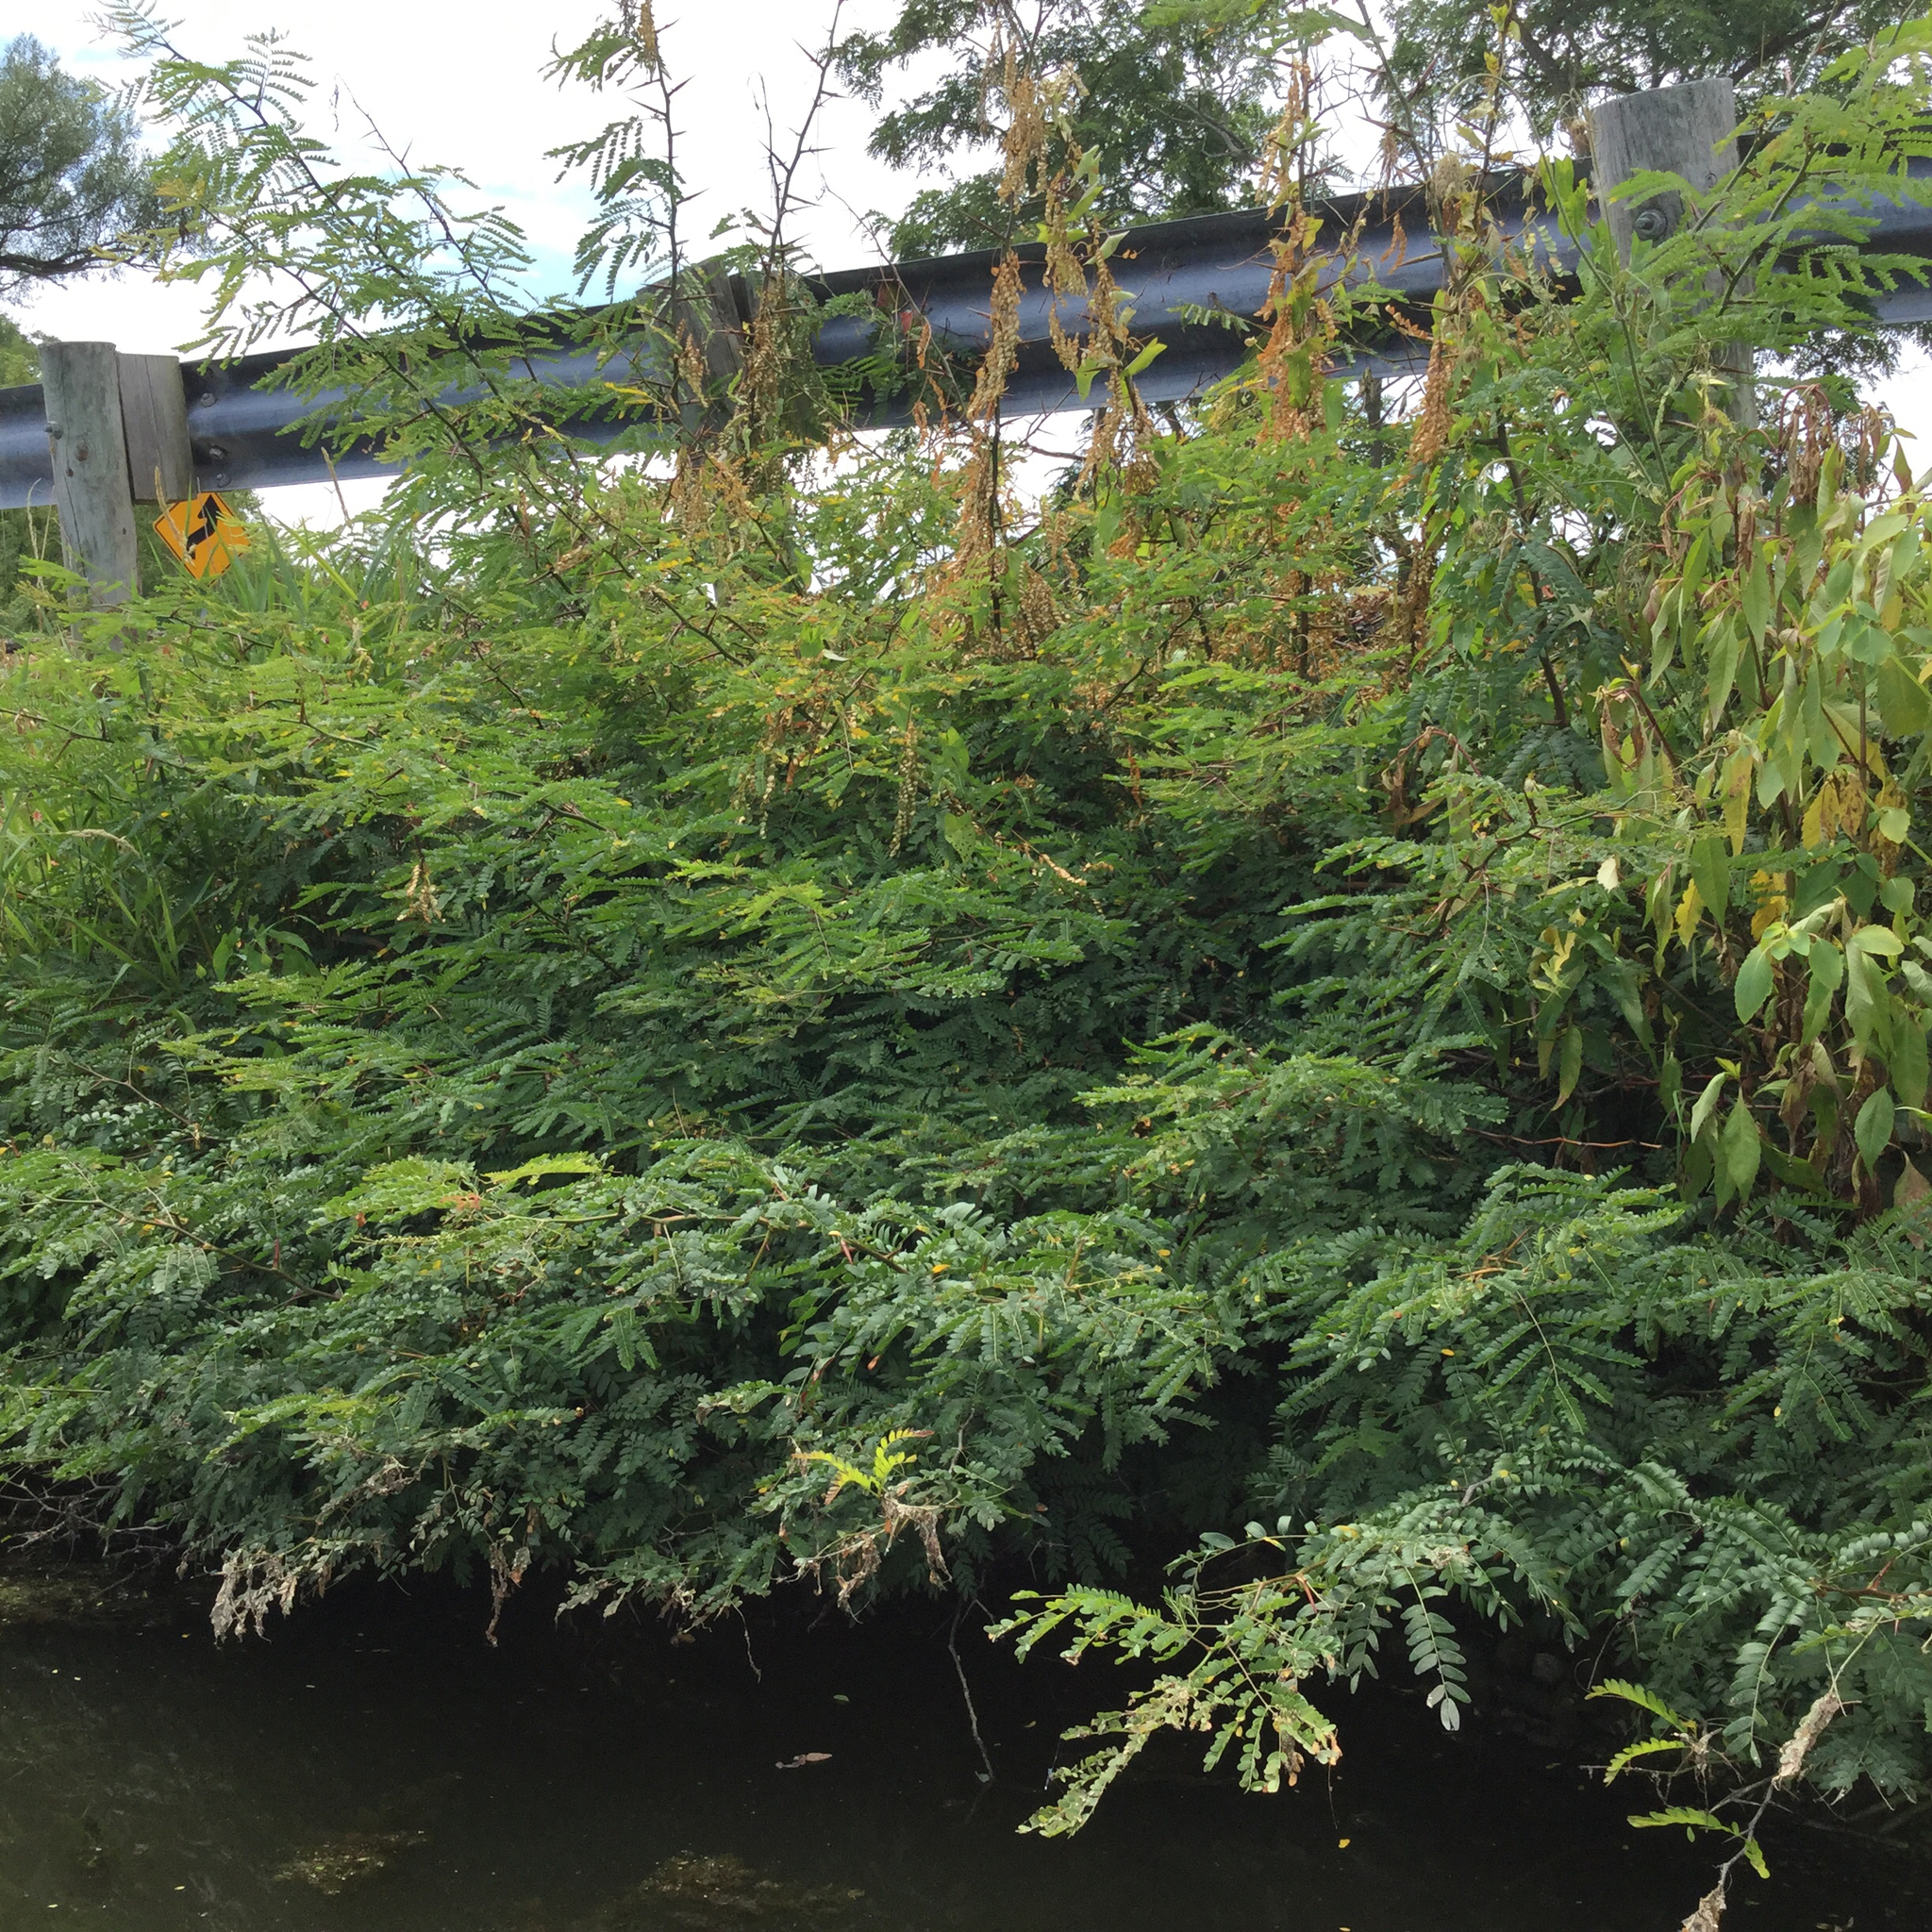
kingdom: Plantae
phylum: Tracheophyta
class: Magnoliopsida
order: Fabales
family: Fabaceae
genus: Gleditsia
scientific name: Gleditsia triacanthos
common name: Common honeylocust
